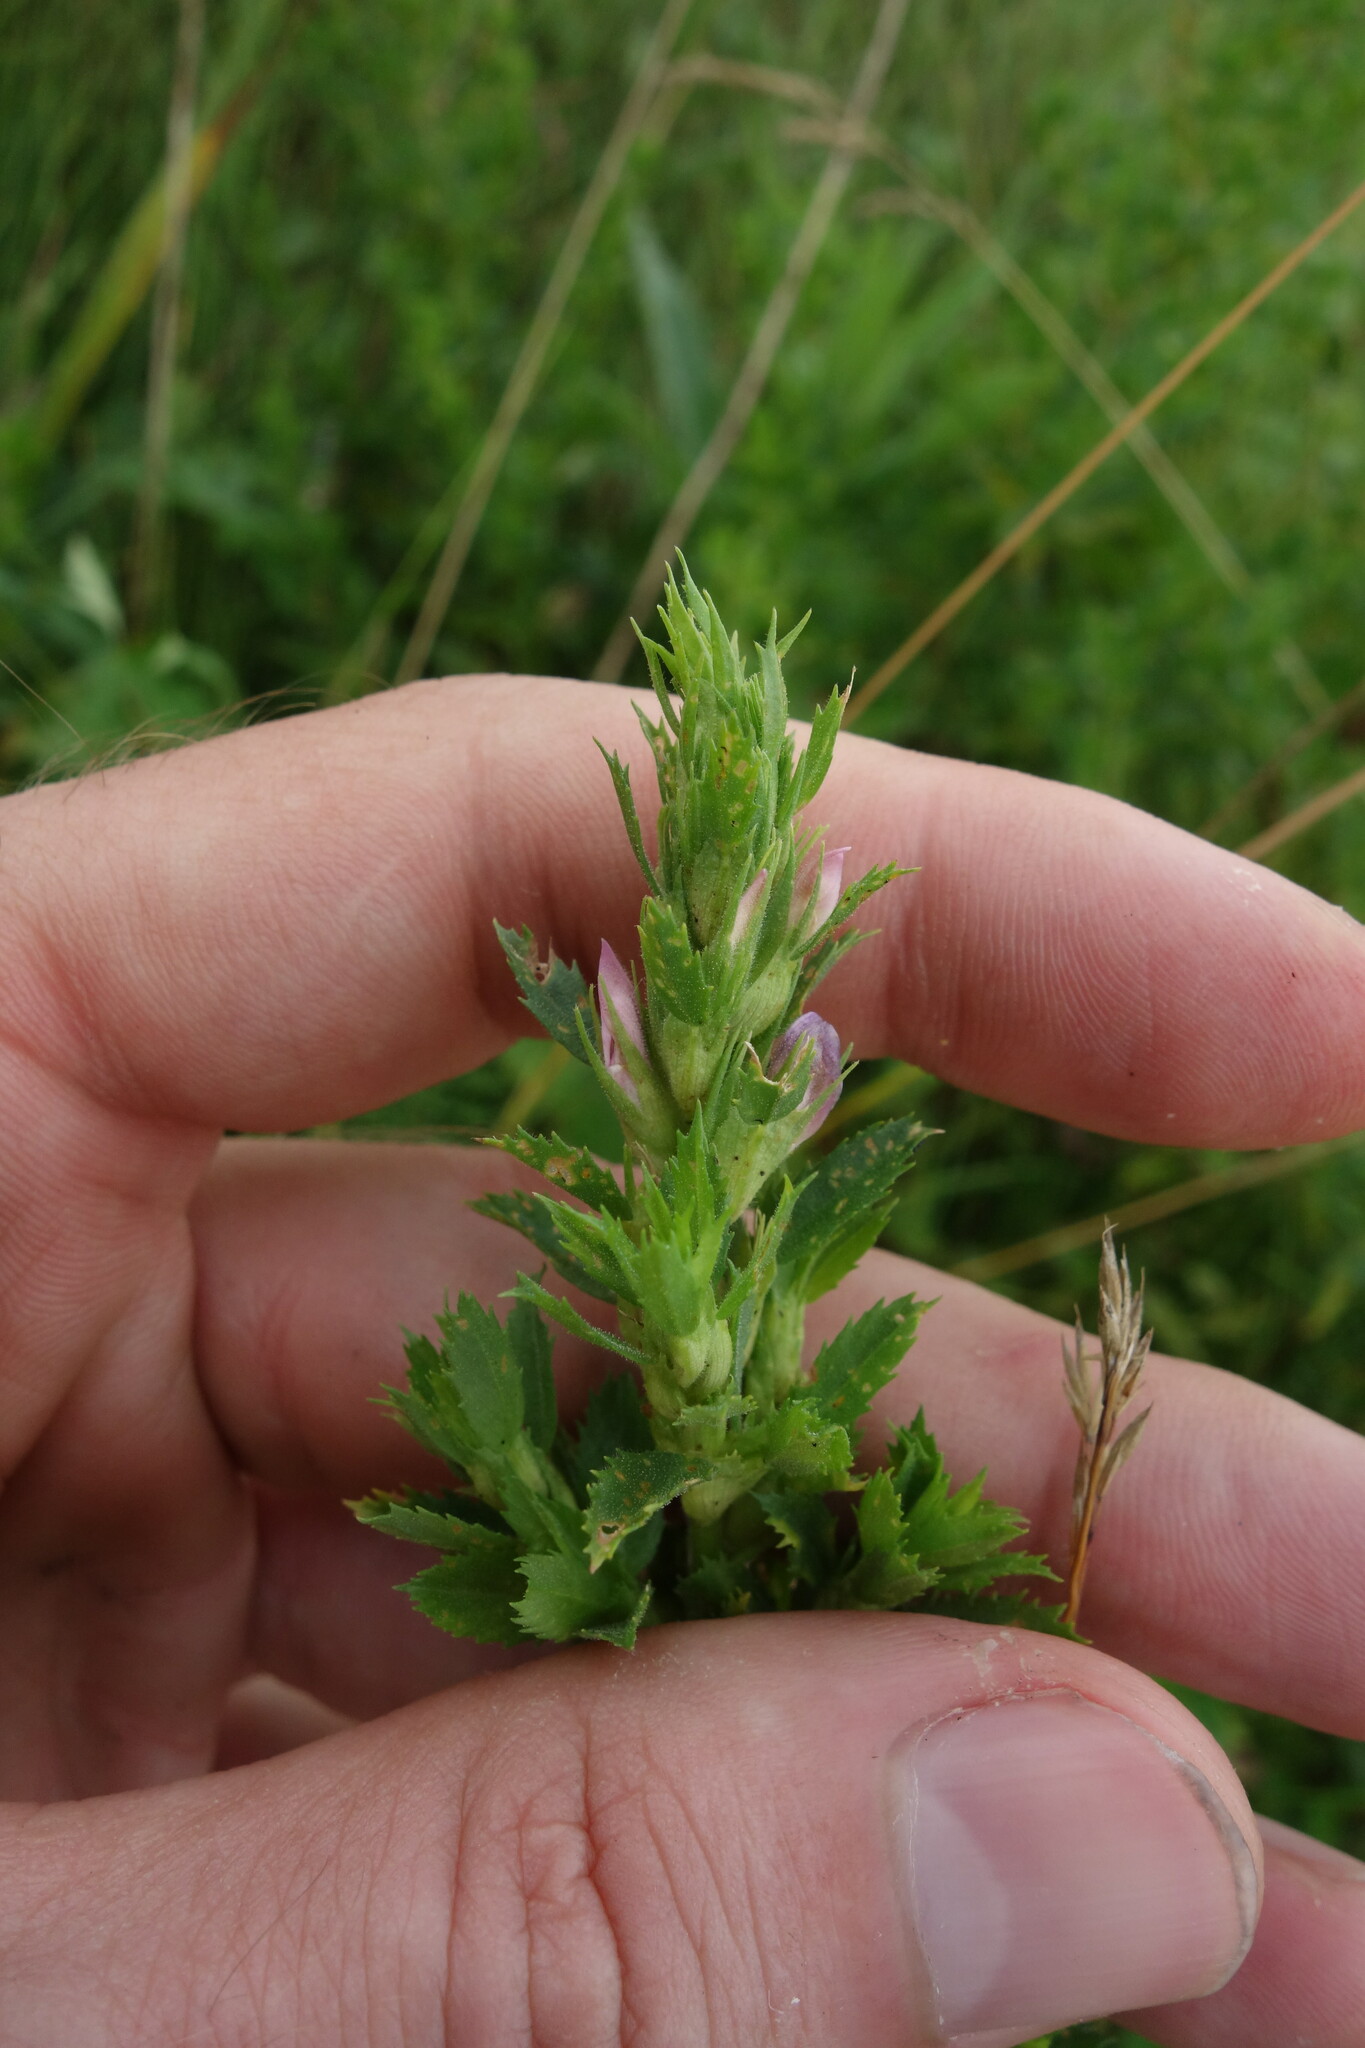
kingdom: Plantae
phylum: Tracheophyta
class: Magnoliopsida
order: Fabales
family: Fabaceae
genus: Ononis
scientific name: Ononis arvensis
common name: Field restharrow
